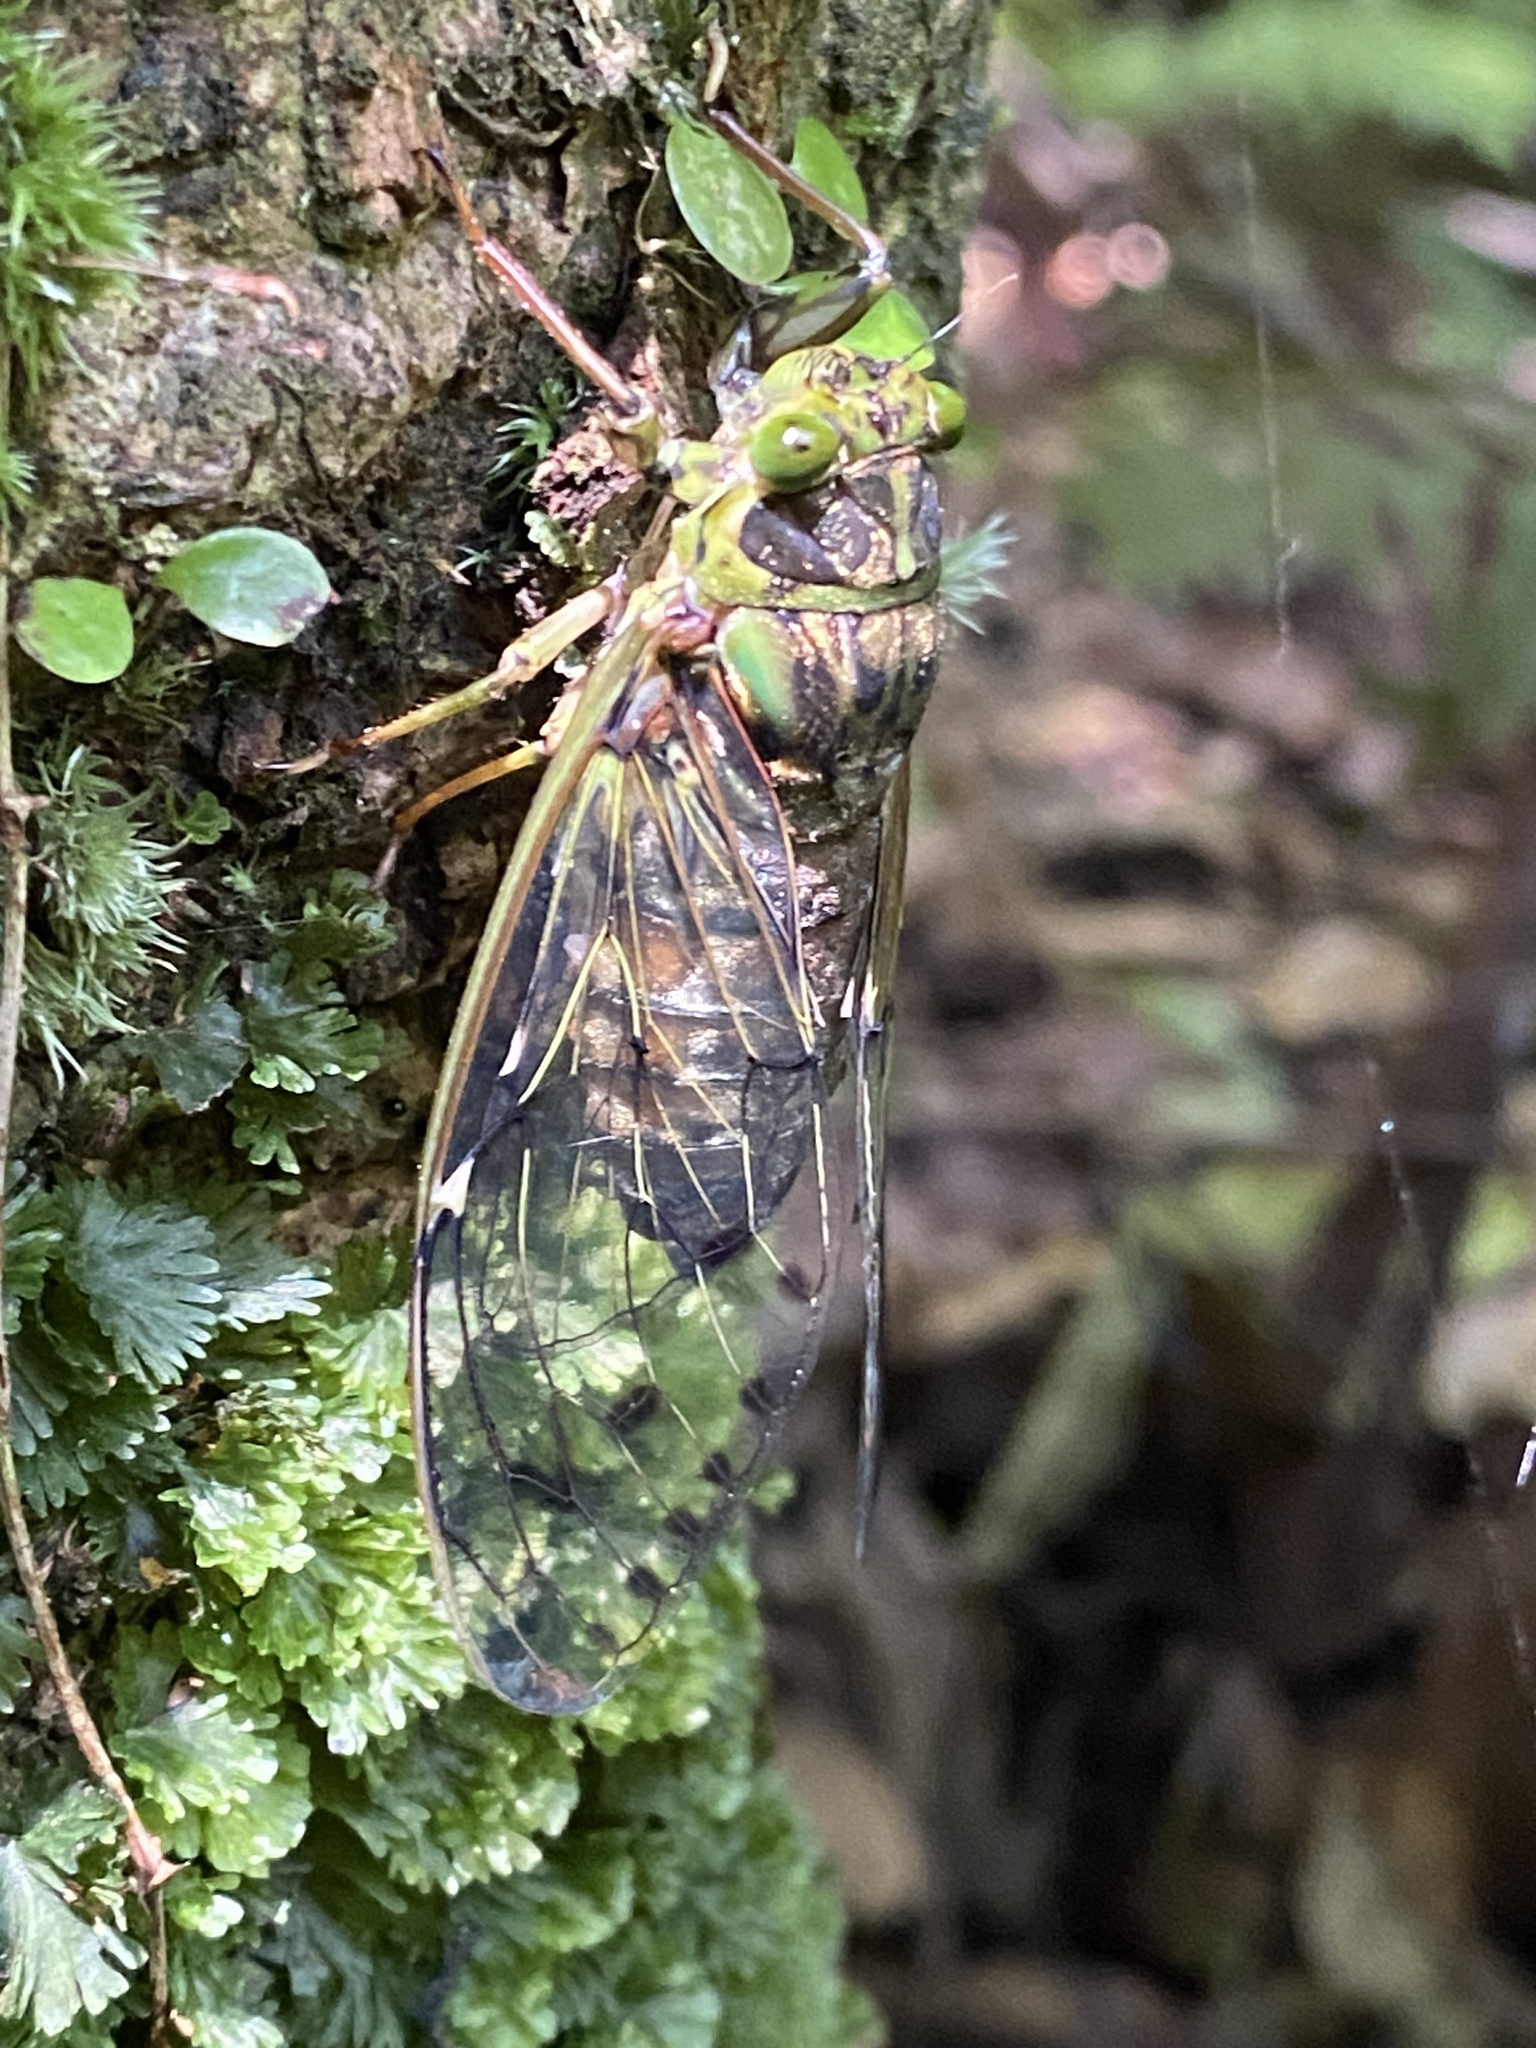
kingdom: Animalia
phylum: Arthropoda
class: Insecta
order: Hemiptera
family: Cicadidae
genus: Tanna
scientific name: Tanna sozanensis
